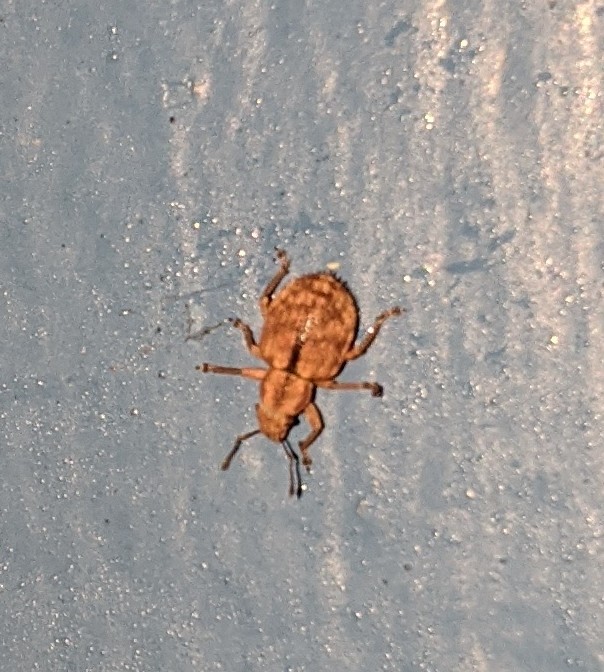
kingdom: Animalia
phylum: Arthropoda
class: Insecta
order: Coleoptera
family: Curculionidae
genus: Strophosoma
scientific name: Strophosoma melanogrammum
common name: Weevil
